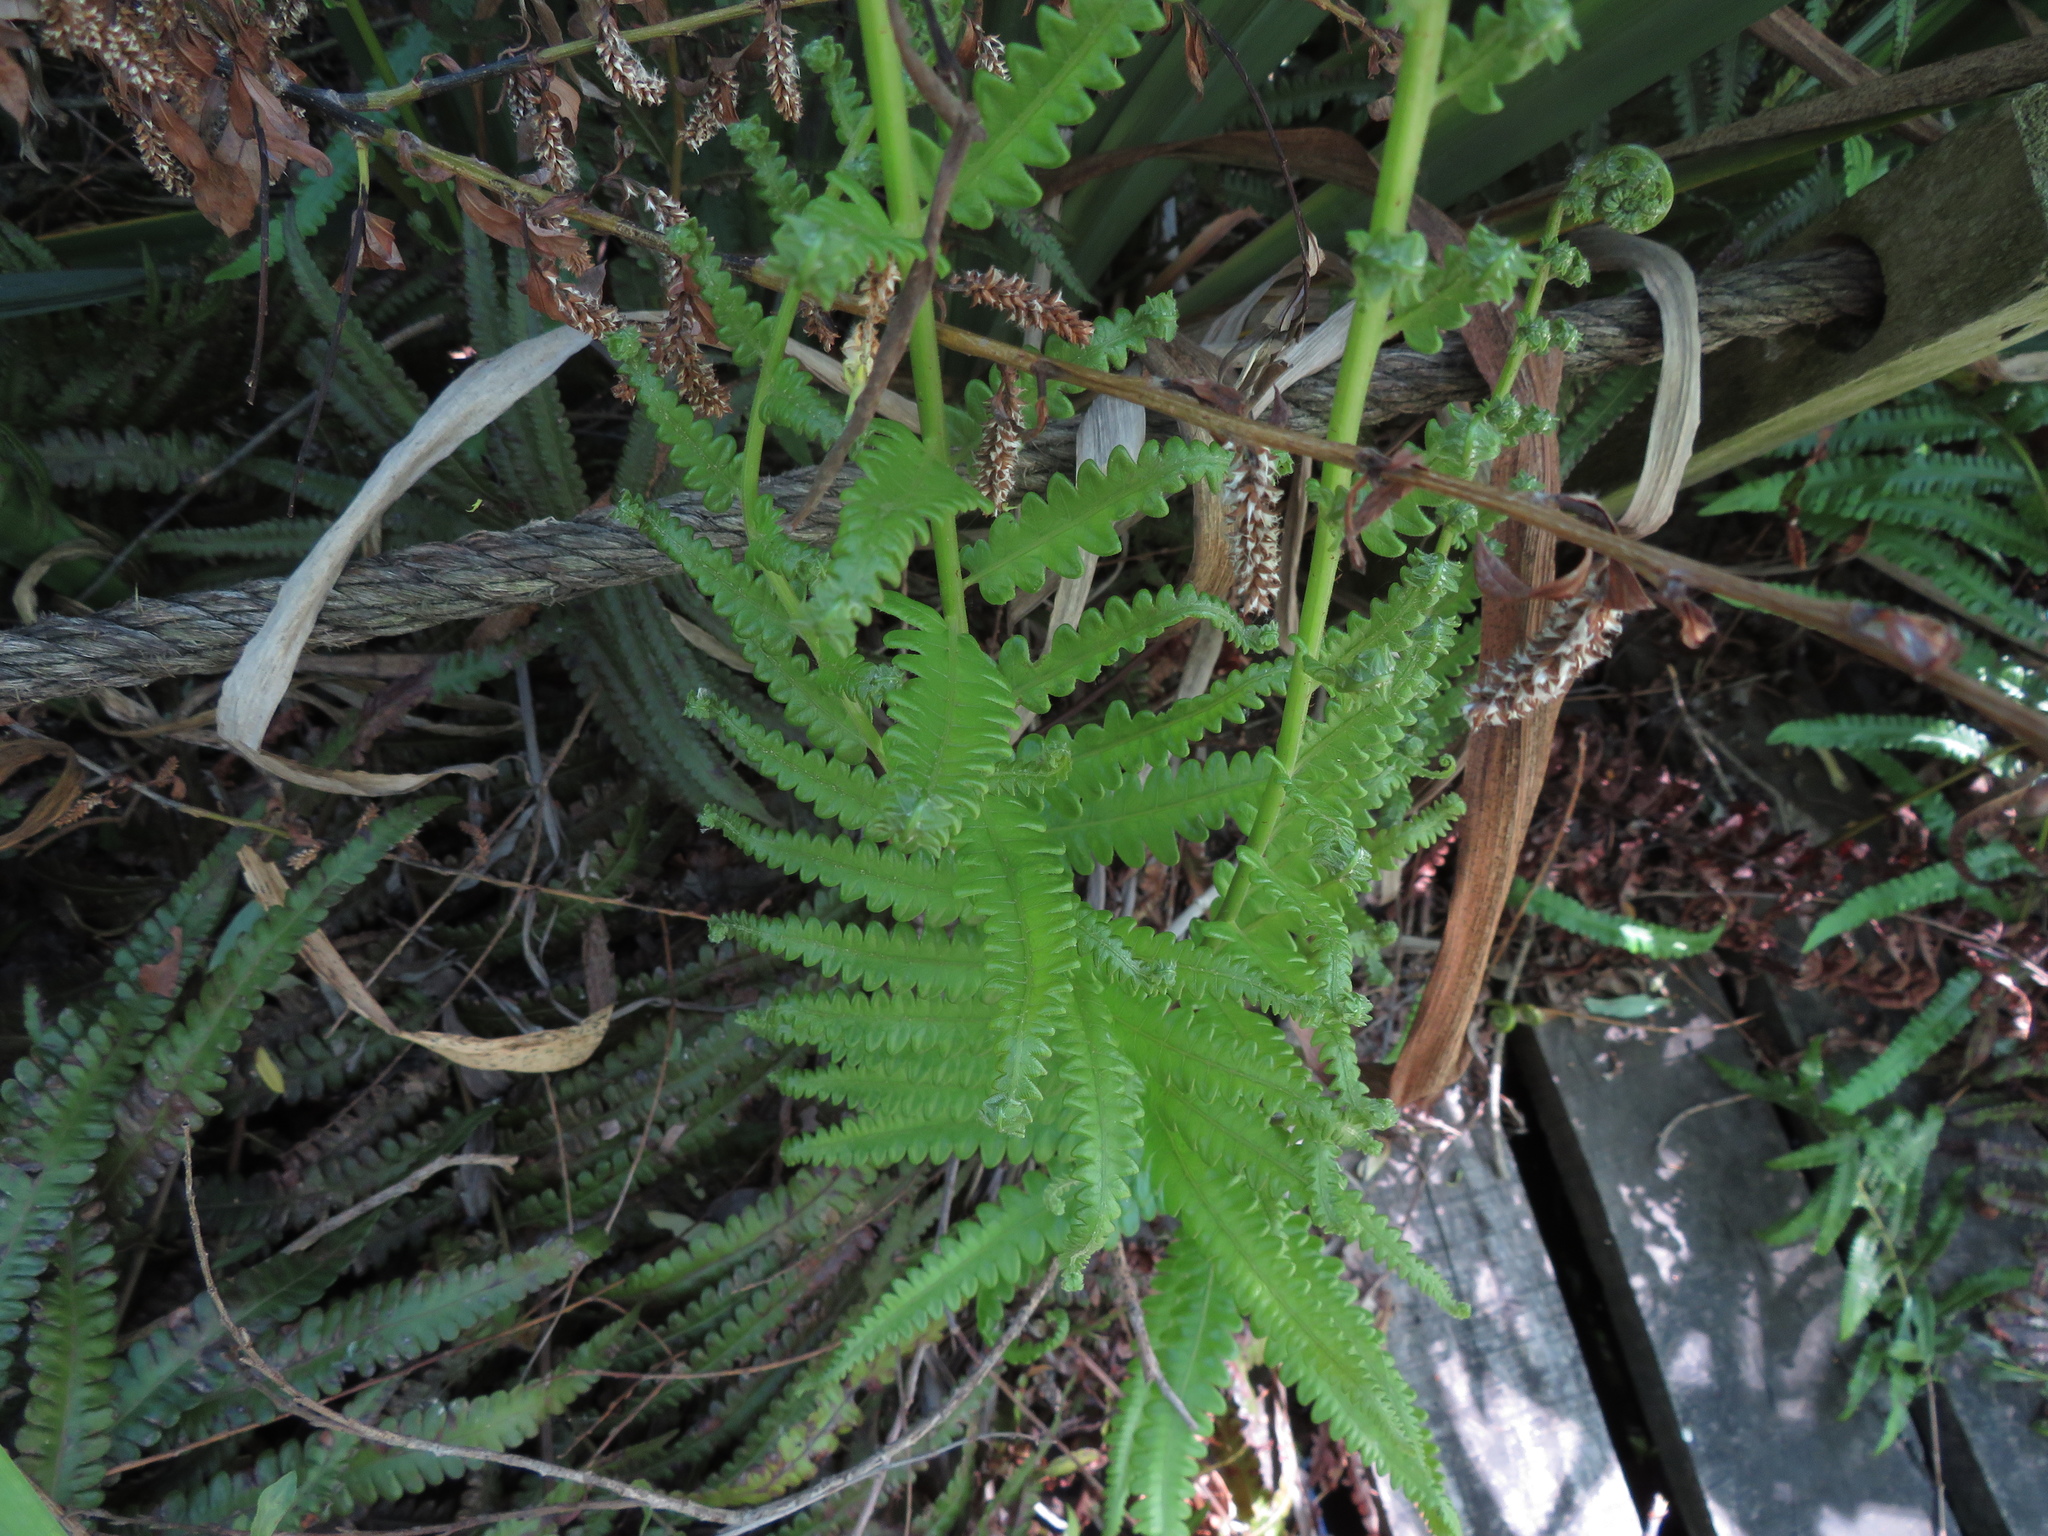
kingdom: Plantae
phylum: Tracheophyta
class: Polypodiopsida
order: Polypodiales
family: Thelypteridaceae
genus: Cyclosorus
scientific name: Cyclosorus interruptus
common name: Neke fern
